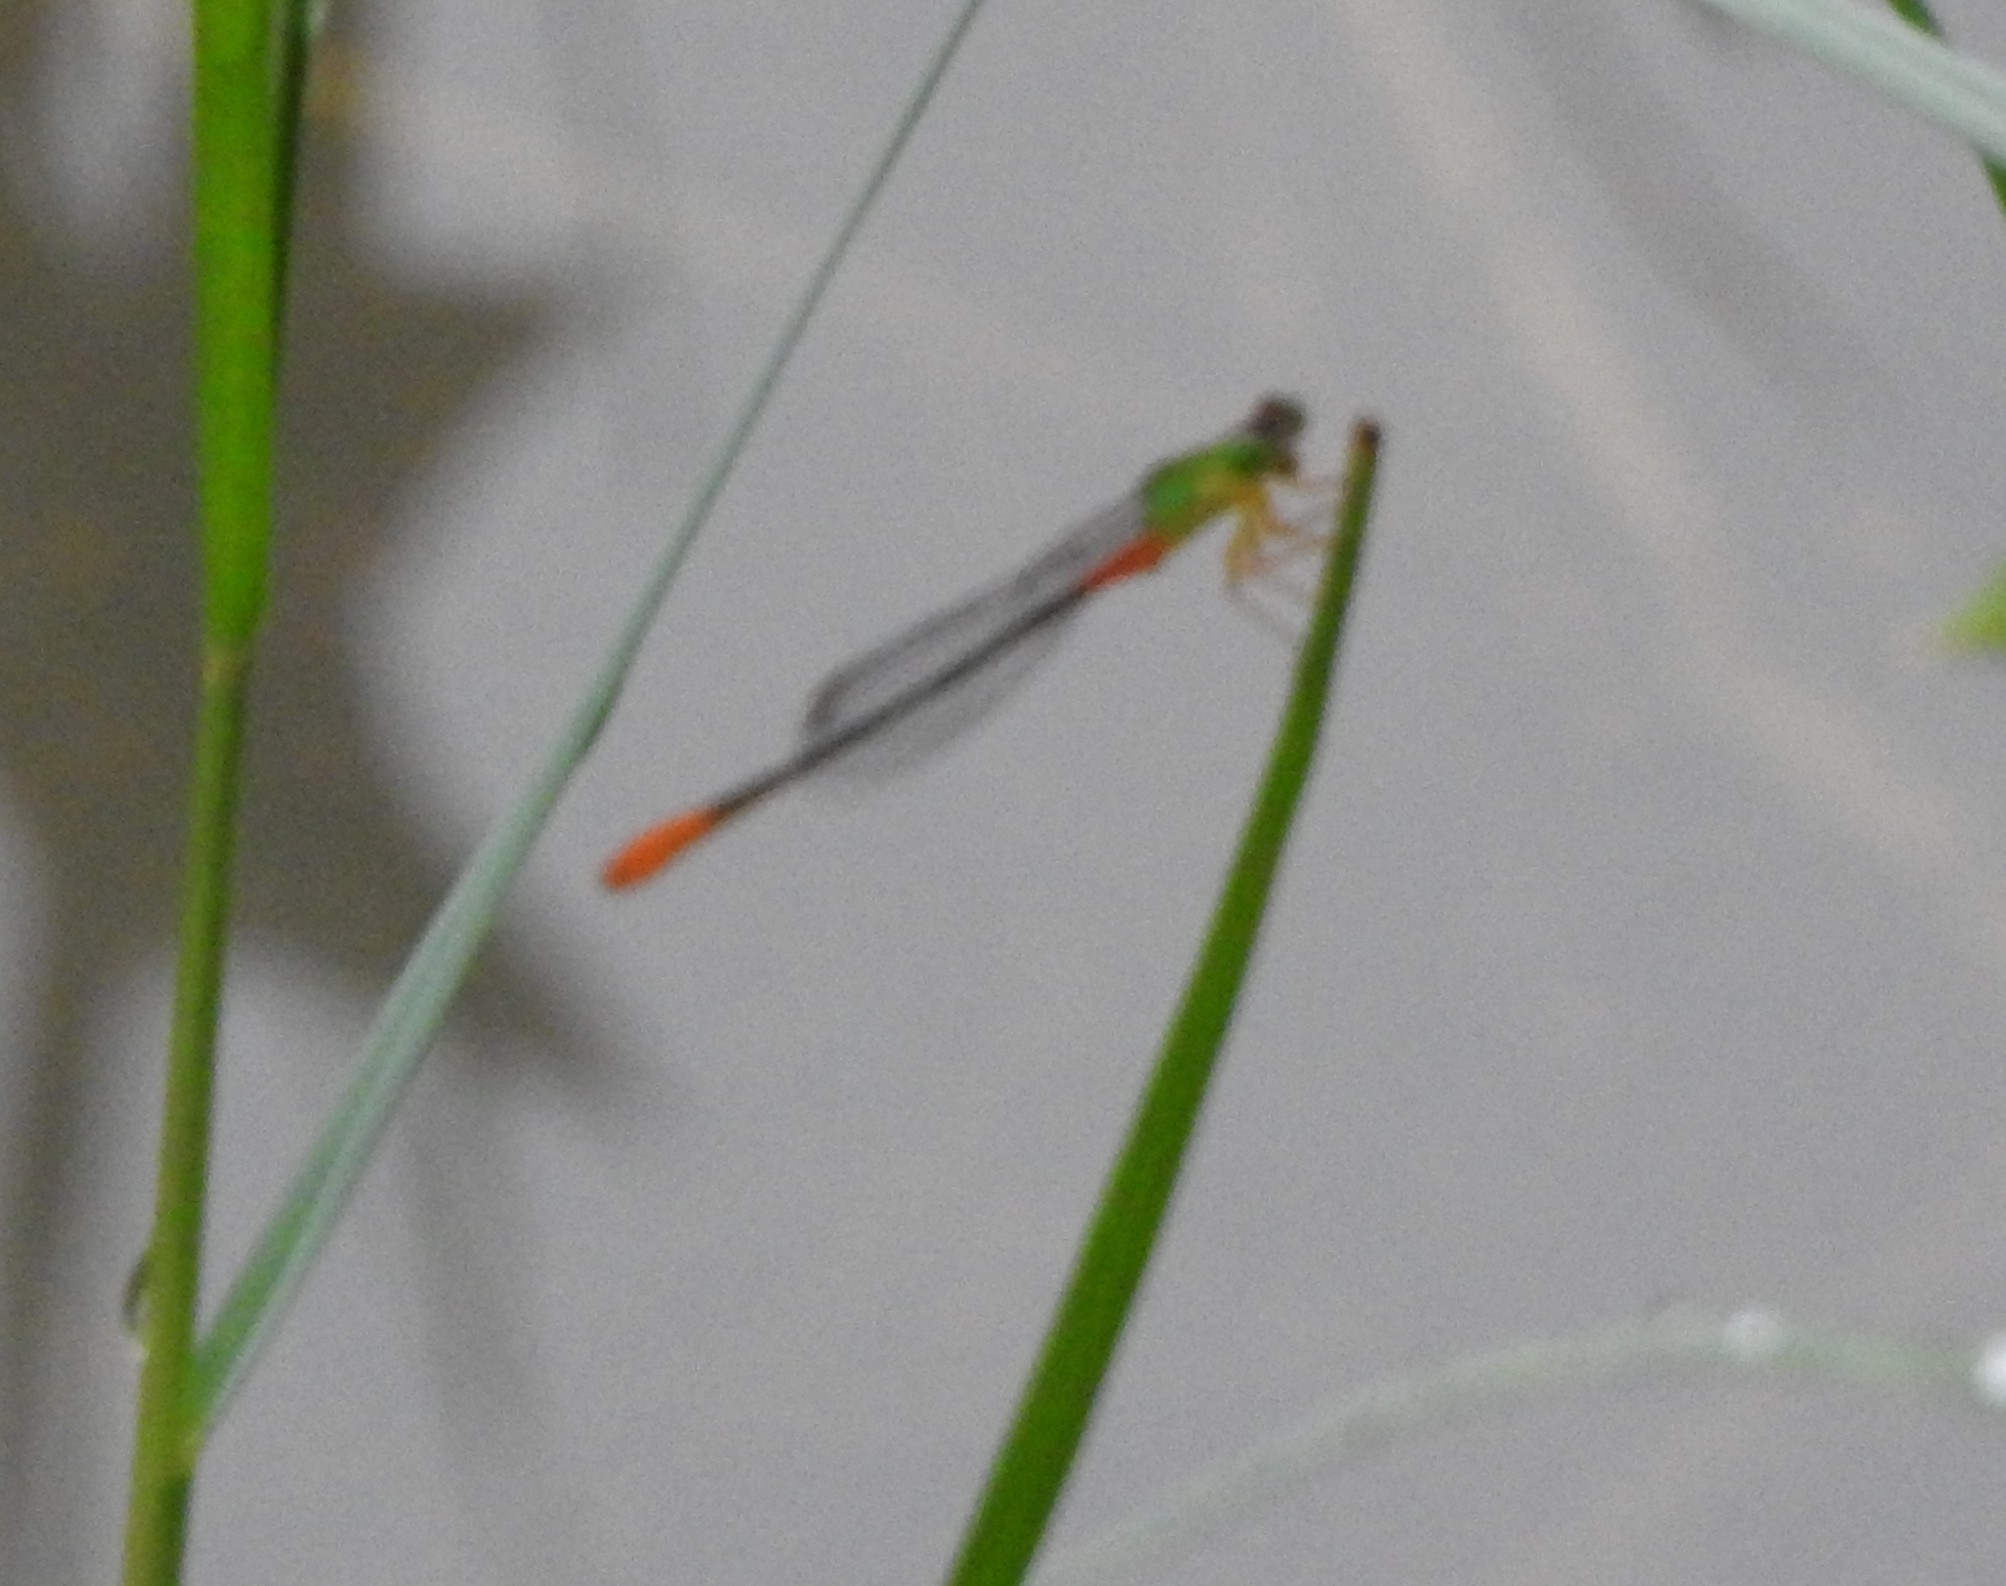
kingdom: Animalia
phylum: Arthropoda
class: Insecta
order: Odonata
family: Coenagrionidae
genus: Ceriagrion
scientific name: Ceriagrion cerinorubellum
